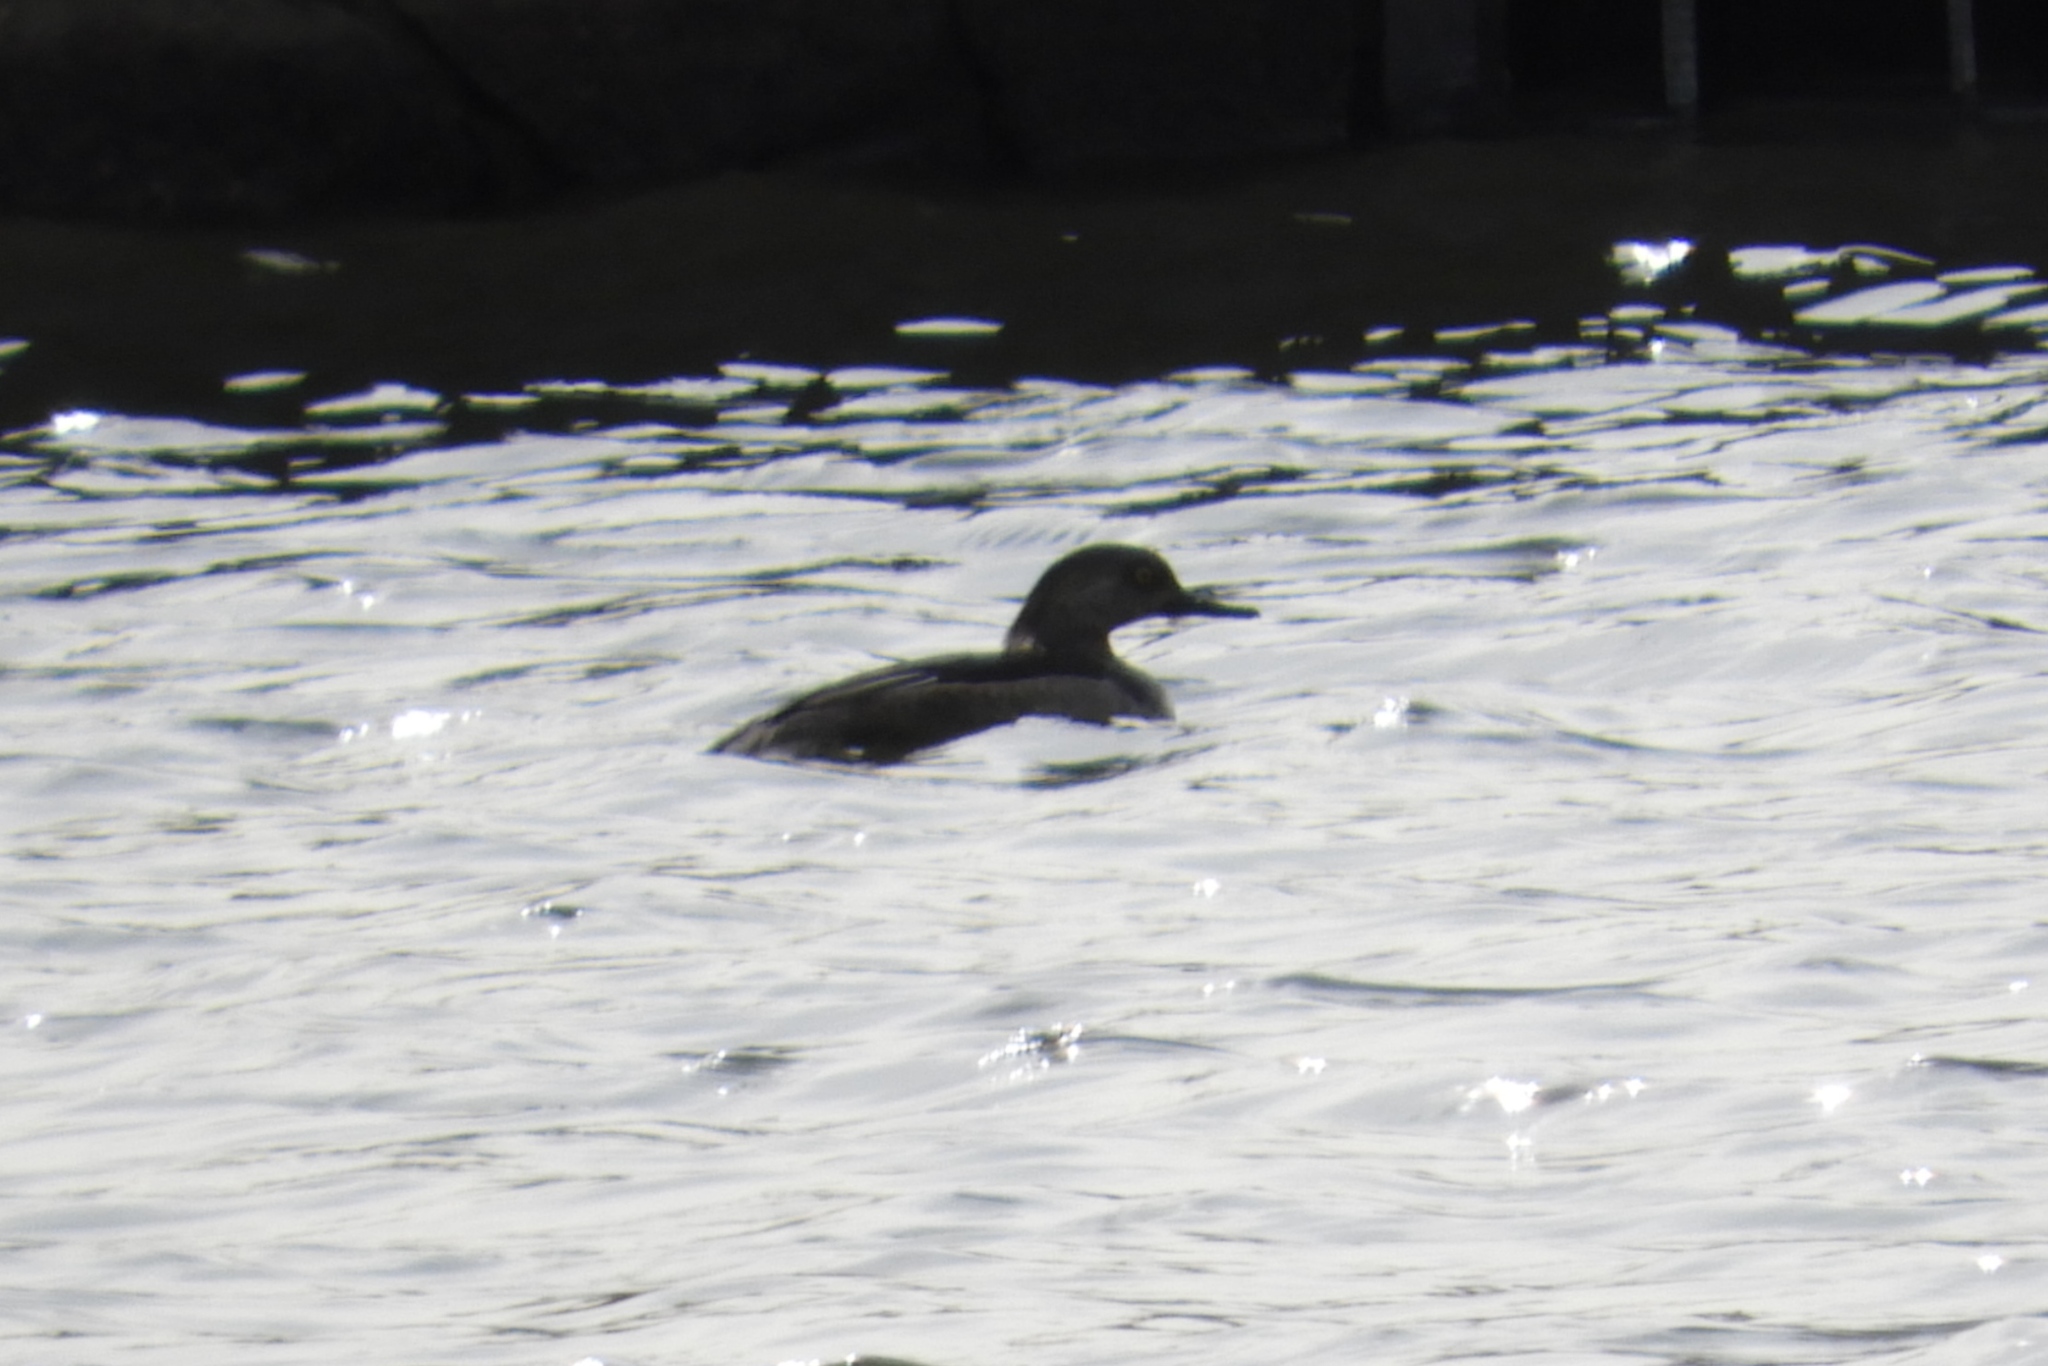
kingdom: Animalia
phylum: Chordata
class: Aves
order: Anseriformes
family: Anatidae
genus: Lophodytes
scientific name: Lophodytes cucullatus
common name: Hooded merganser
